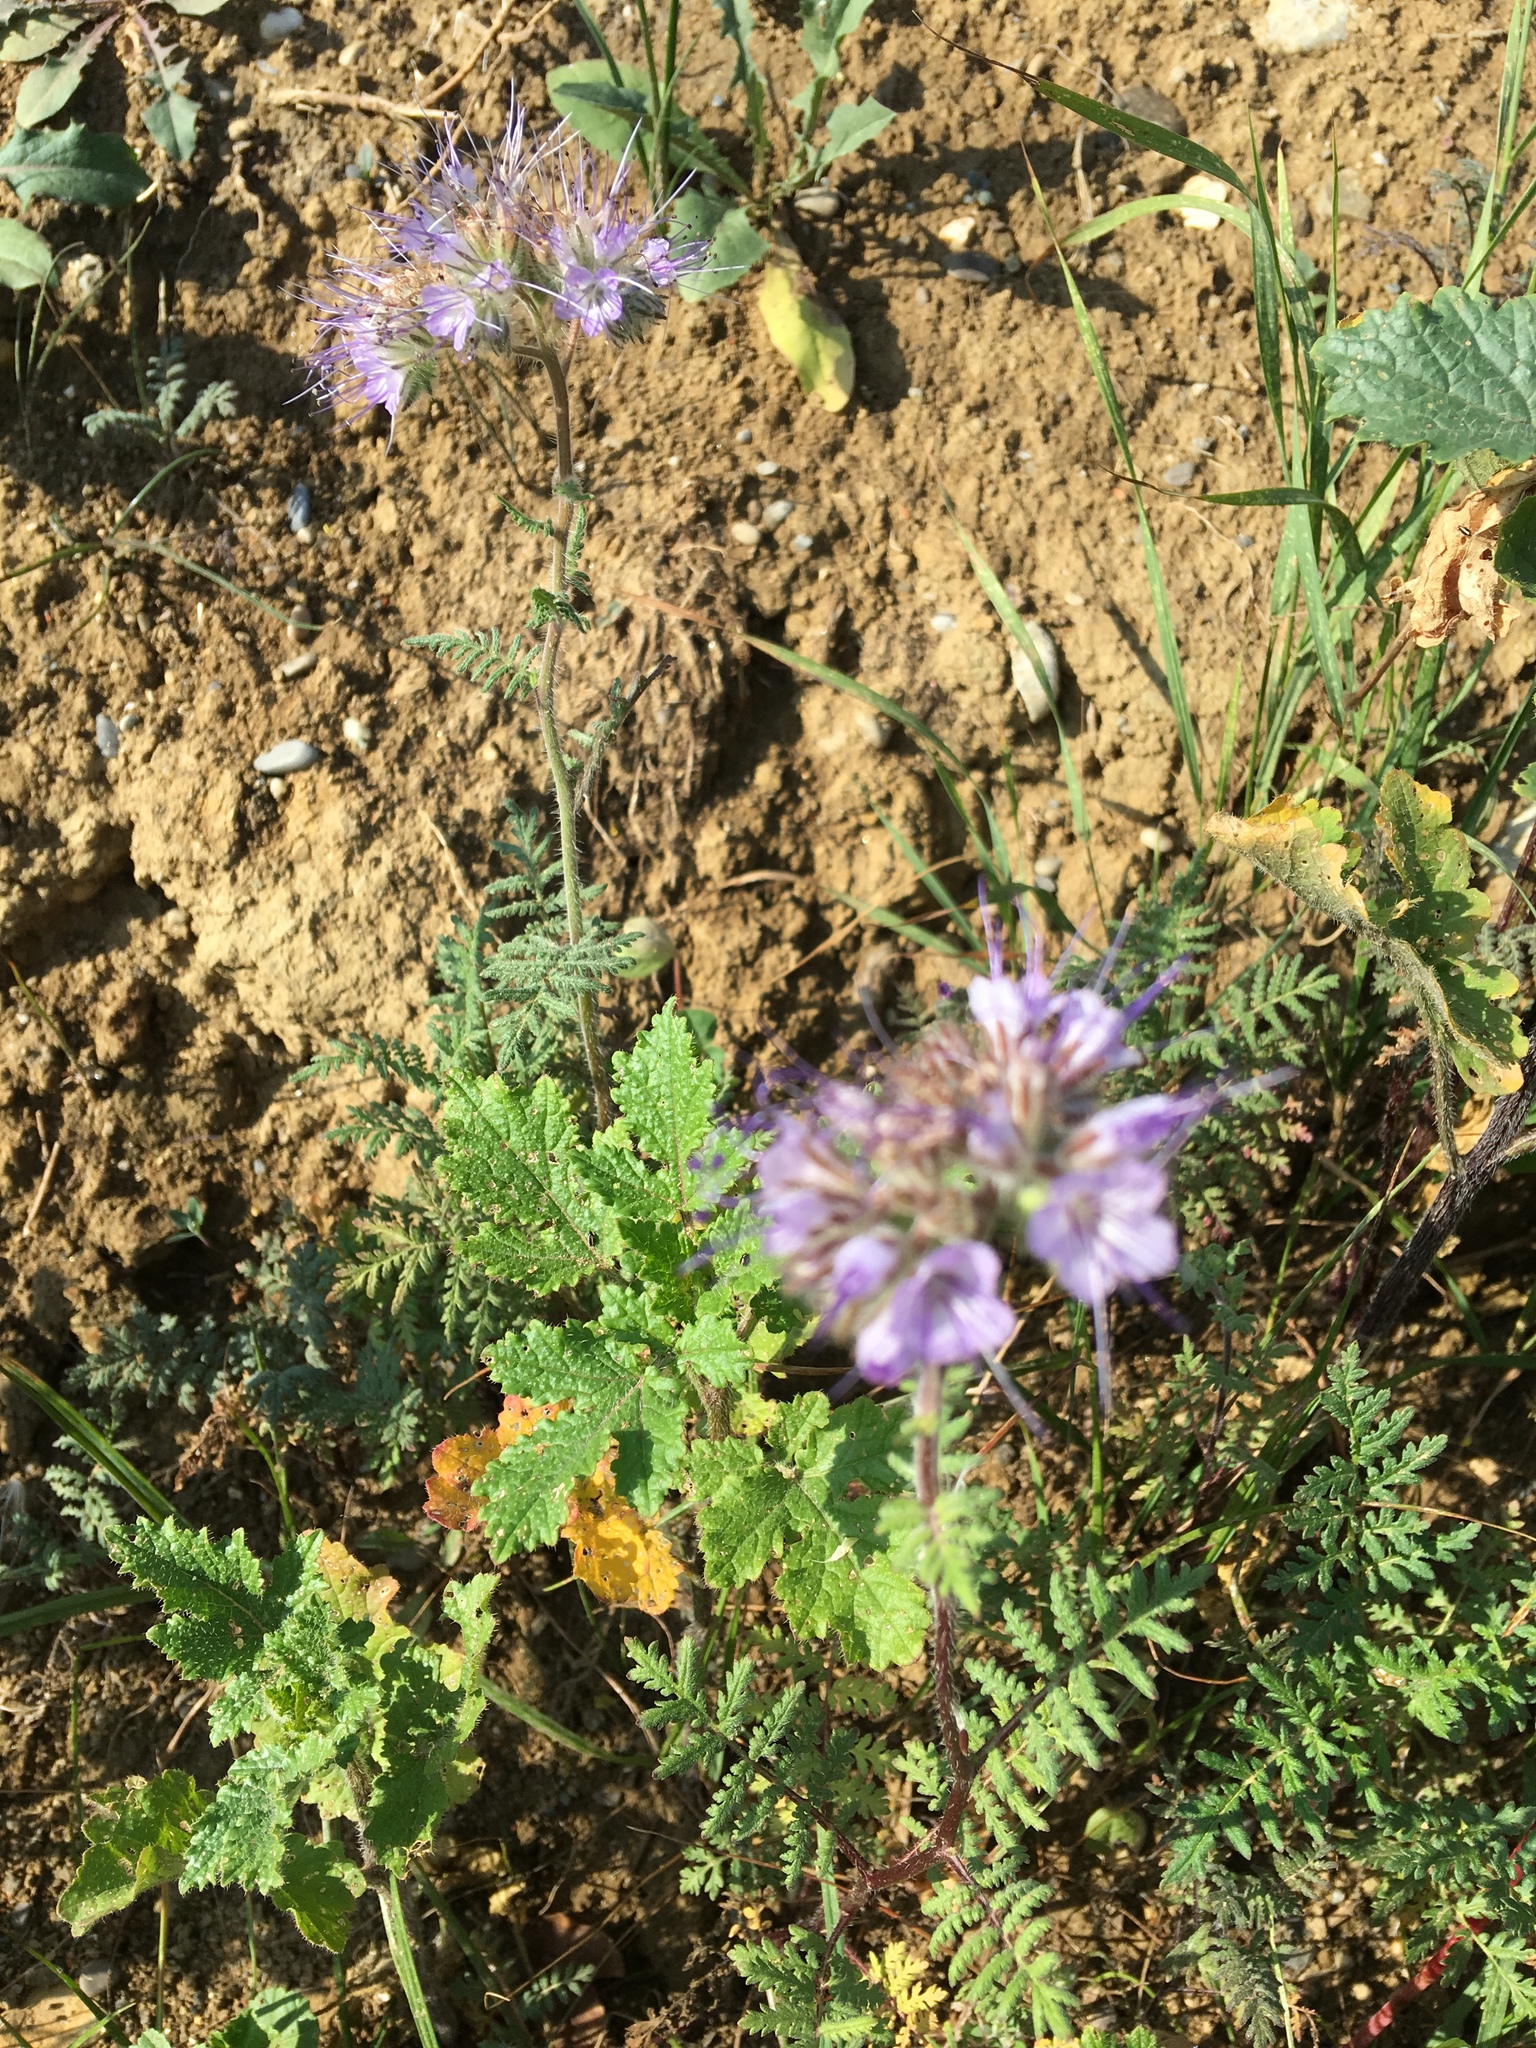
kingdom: Plantae
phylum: Tracheophyta
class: Magnoliopsida
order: Boraginales
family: Hydrophyllaceae
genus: Phacelia
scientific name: Phacelia tanacetifolia
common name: Phacelia
